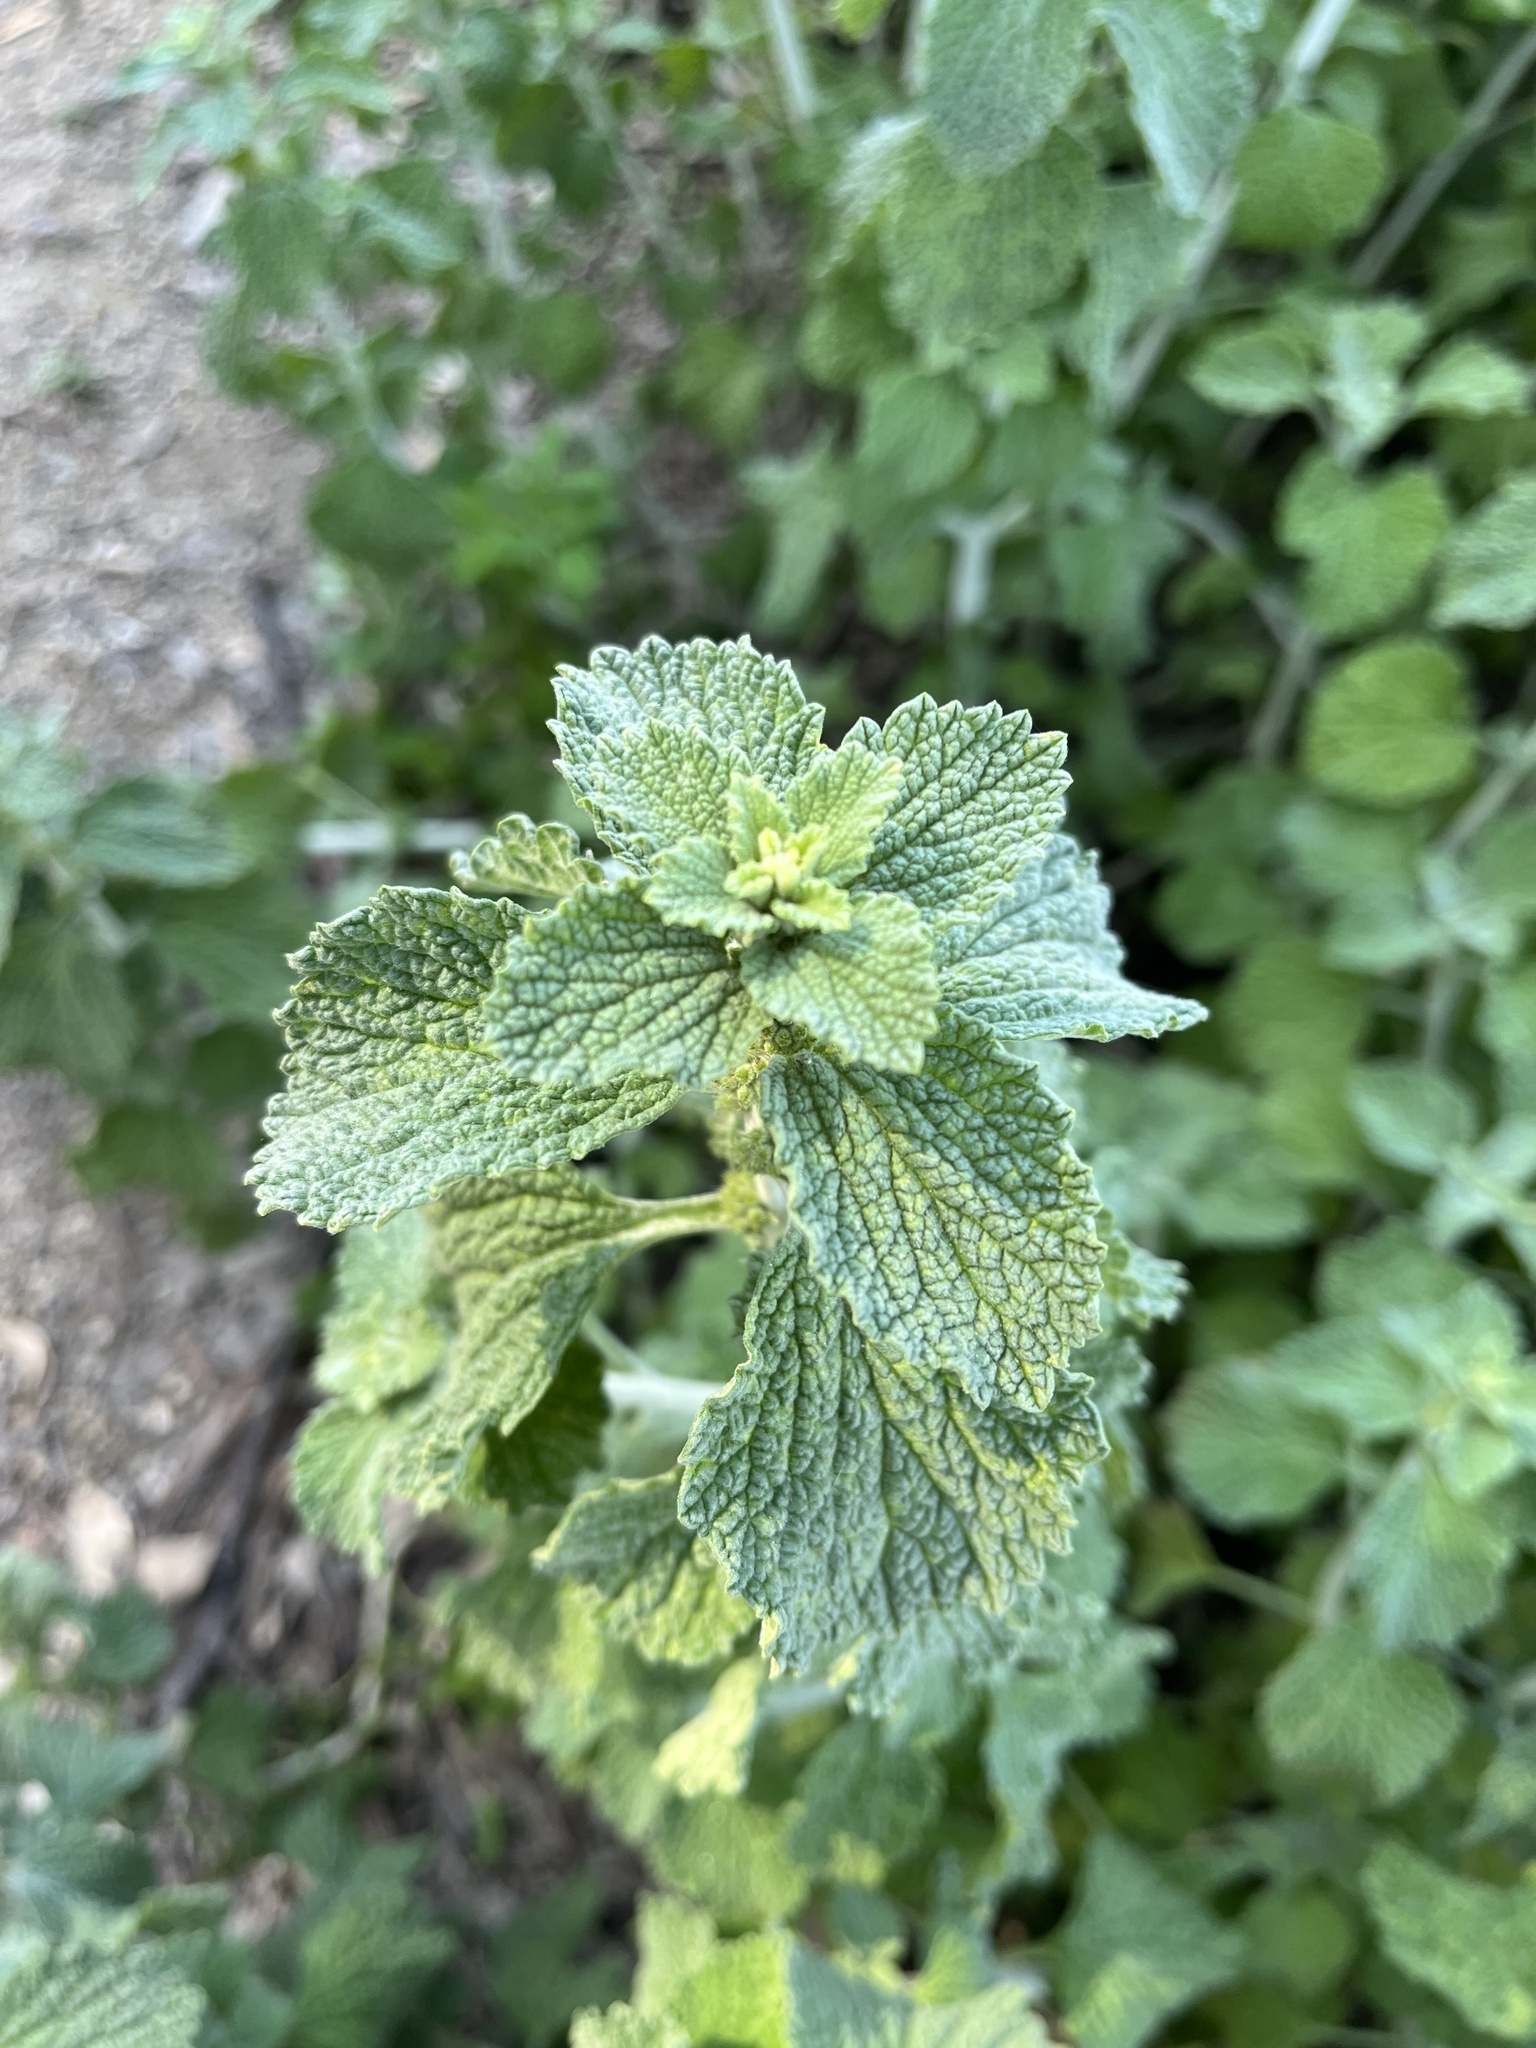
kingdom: Plantae
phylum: Tracheophyta
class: Magnoliopsida
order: Lamiales
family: Lamiaceae
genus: Marrubium
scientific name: Marrubium vulgare
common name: Horehound
